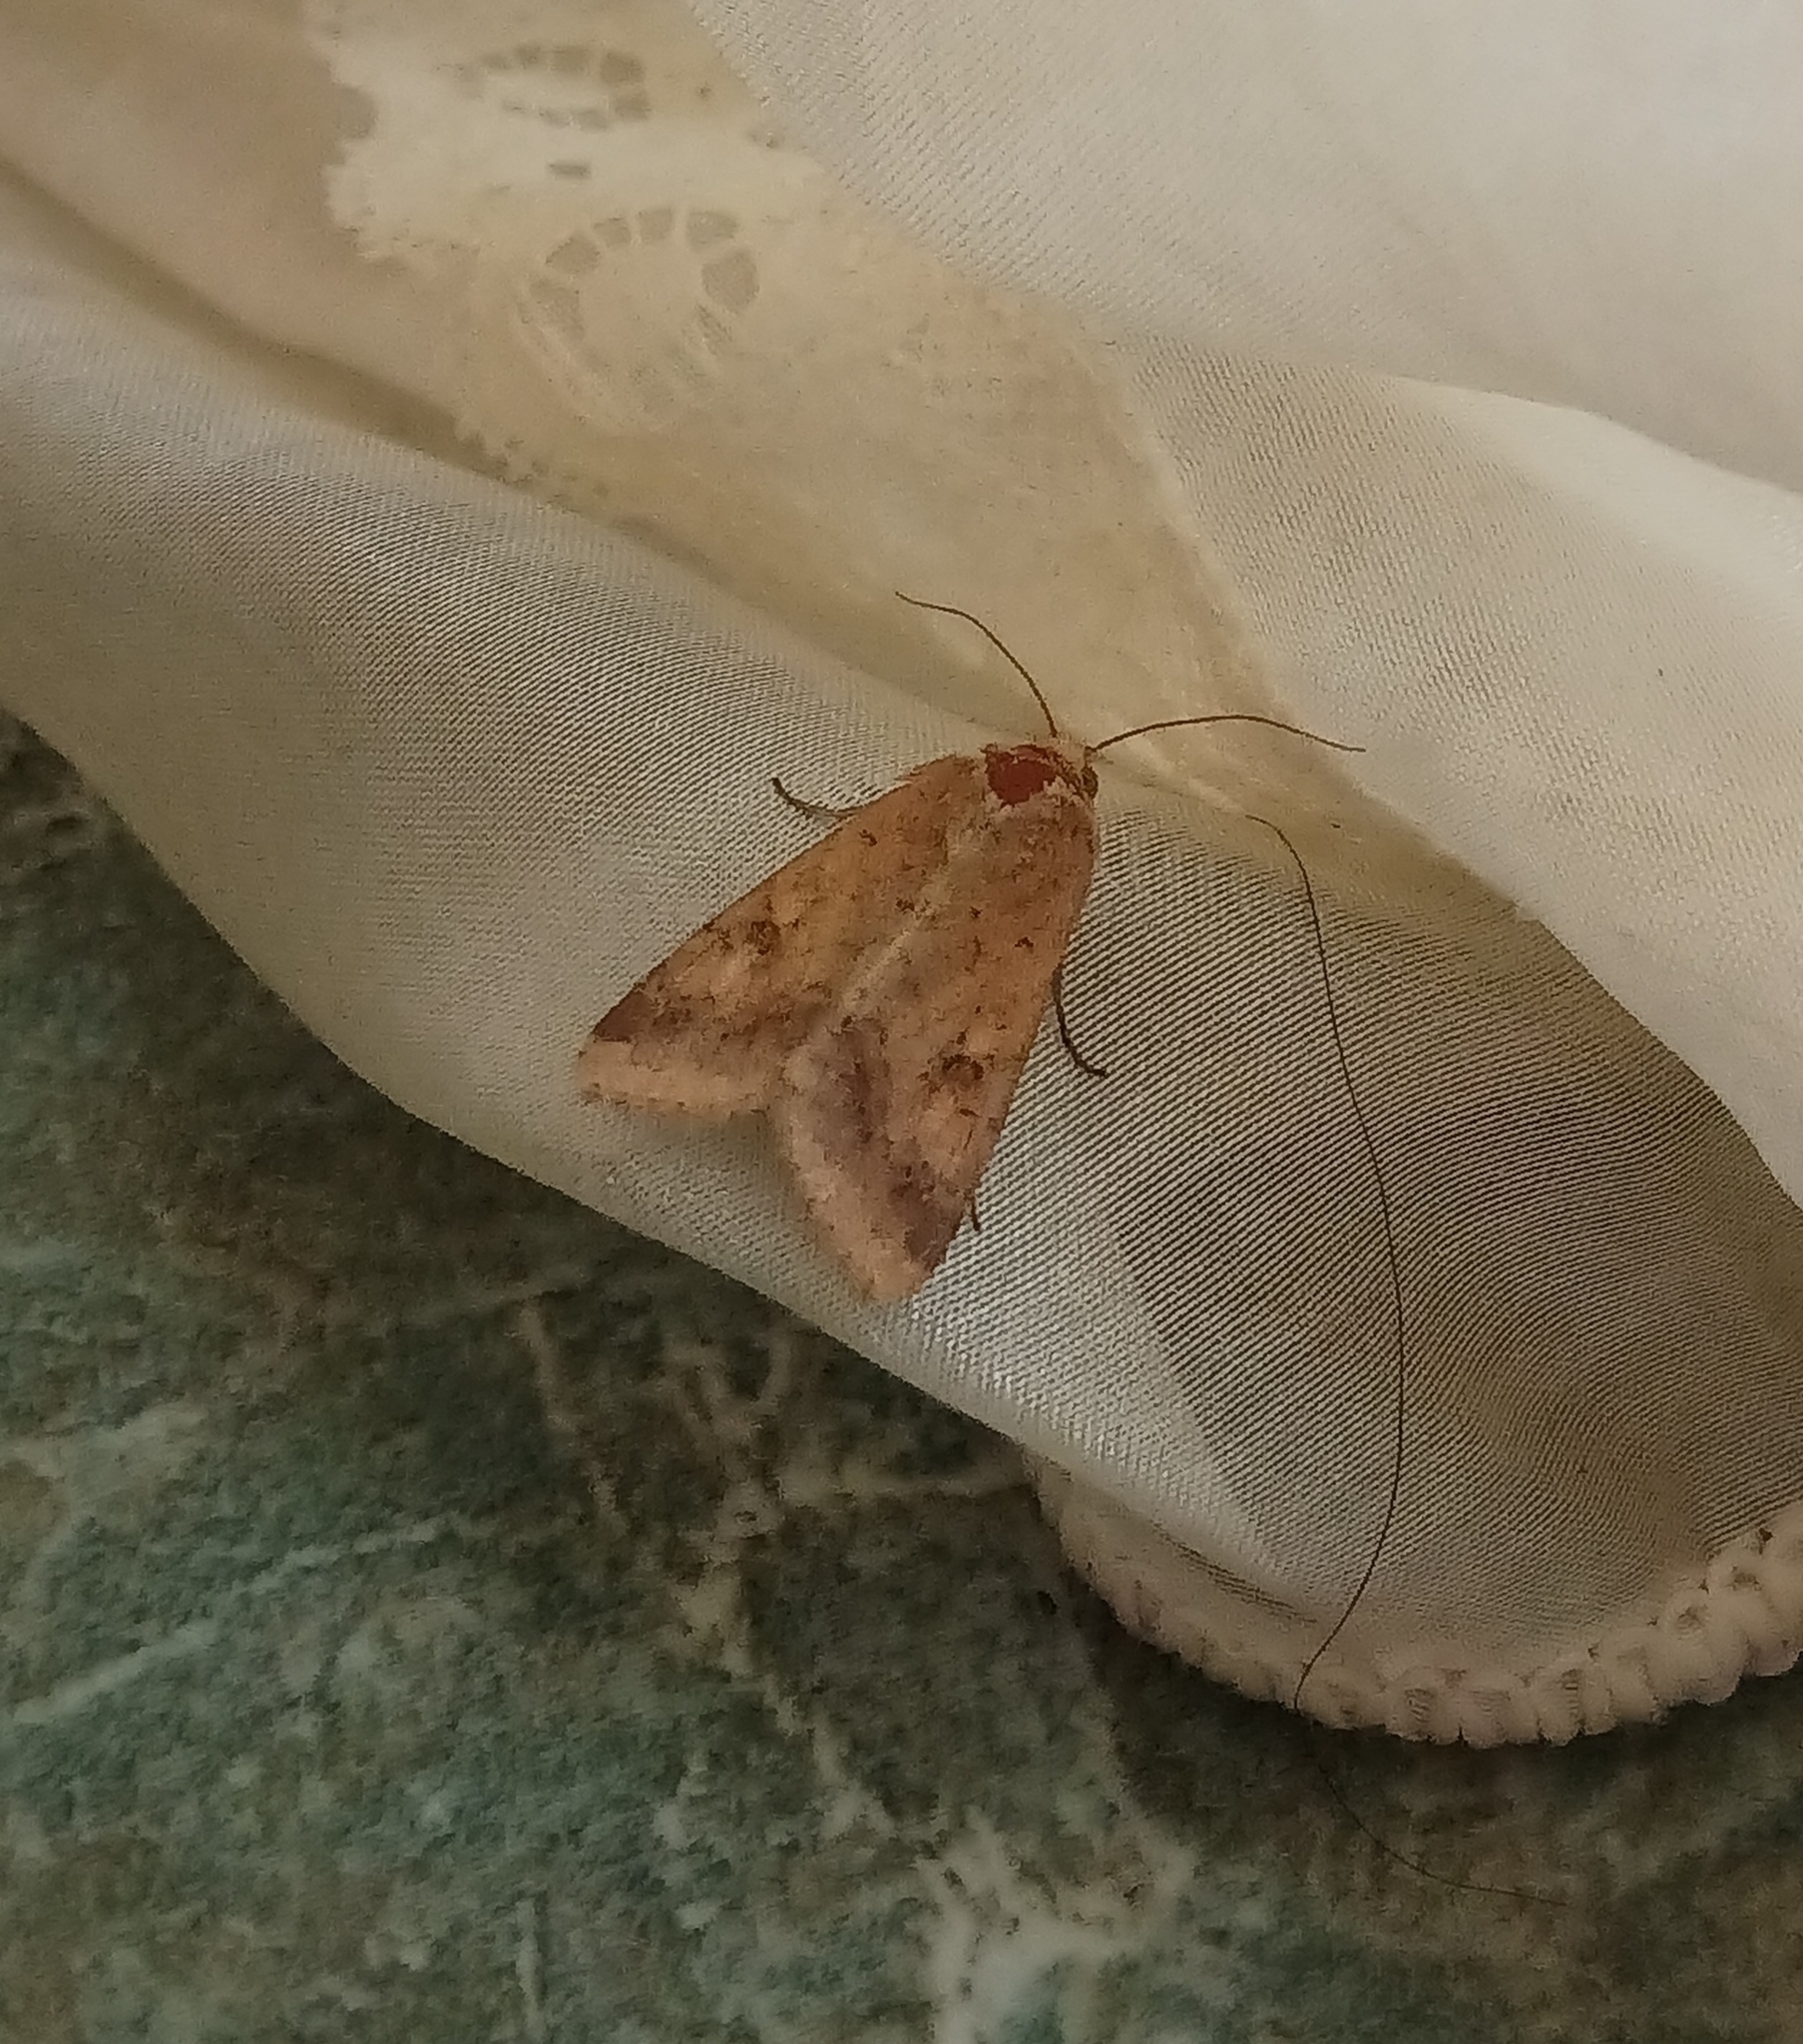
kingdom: Animalia
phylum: Arthropoda
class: Insecta
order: Lepidoptera
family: Noctuidae
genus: Helicoverpa
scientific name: Helicoverpa armigera
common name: Cotton bollworm
